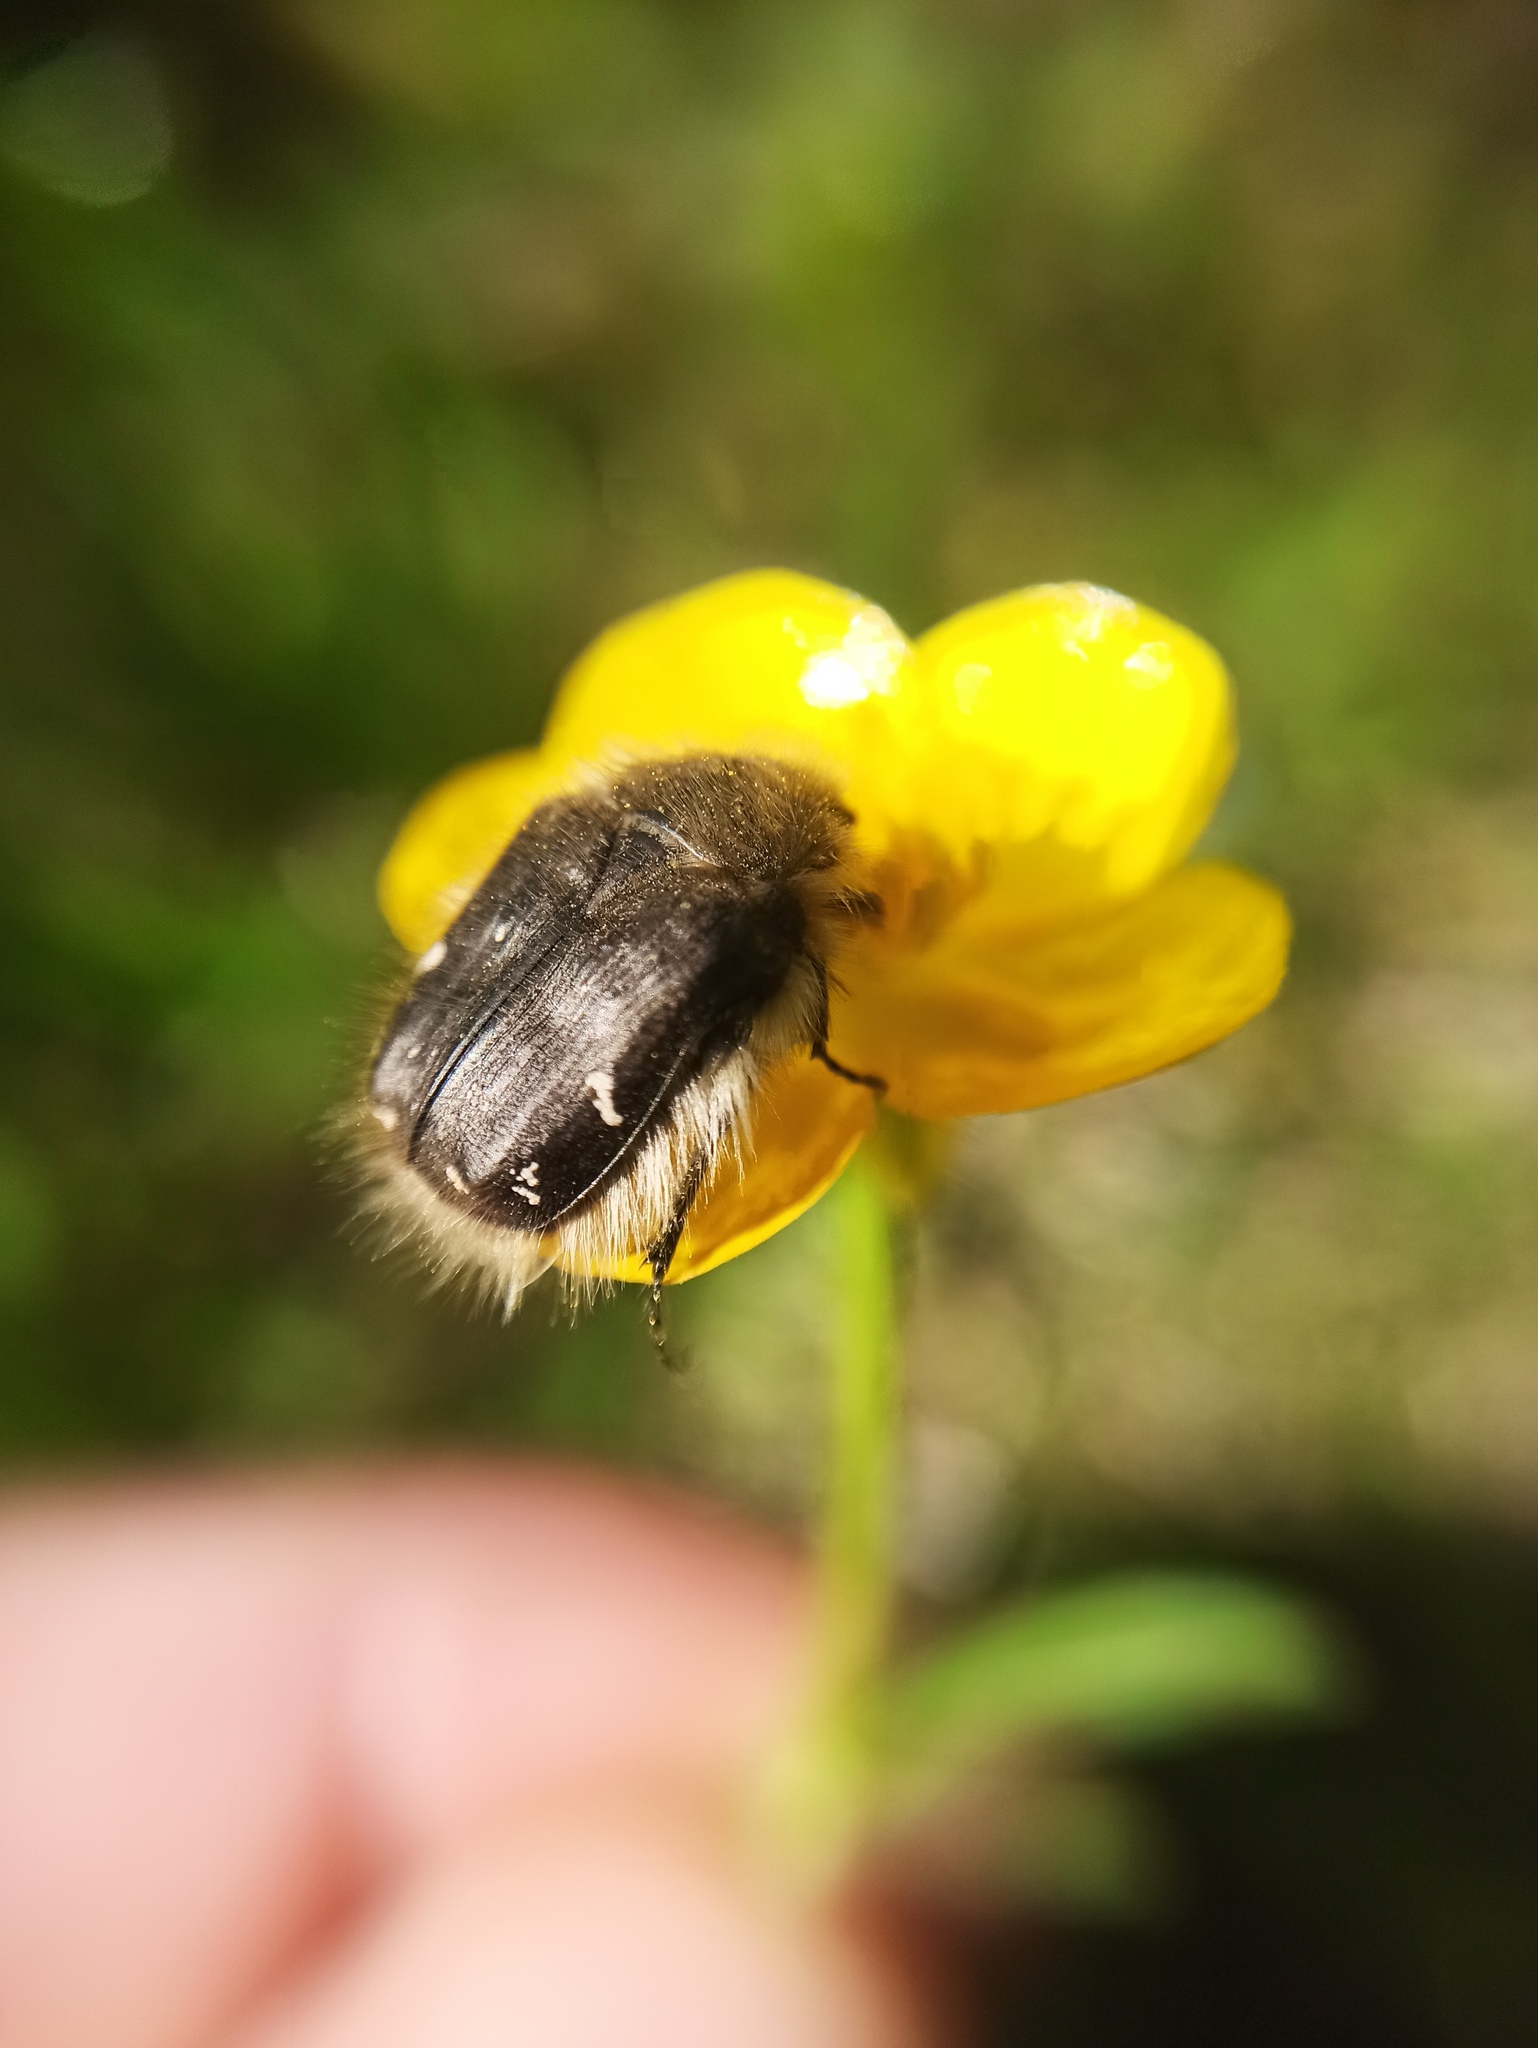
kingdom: Animalia
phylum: Arthropoda
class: Insecta
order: Coleoptera
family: Scarabaeidae
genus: Tropinota
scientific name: Tropinota hirta
